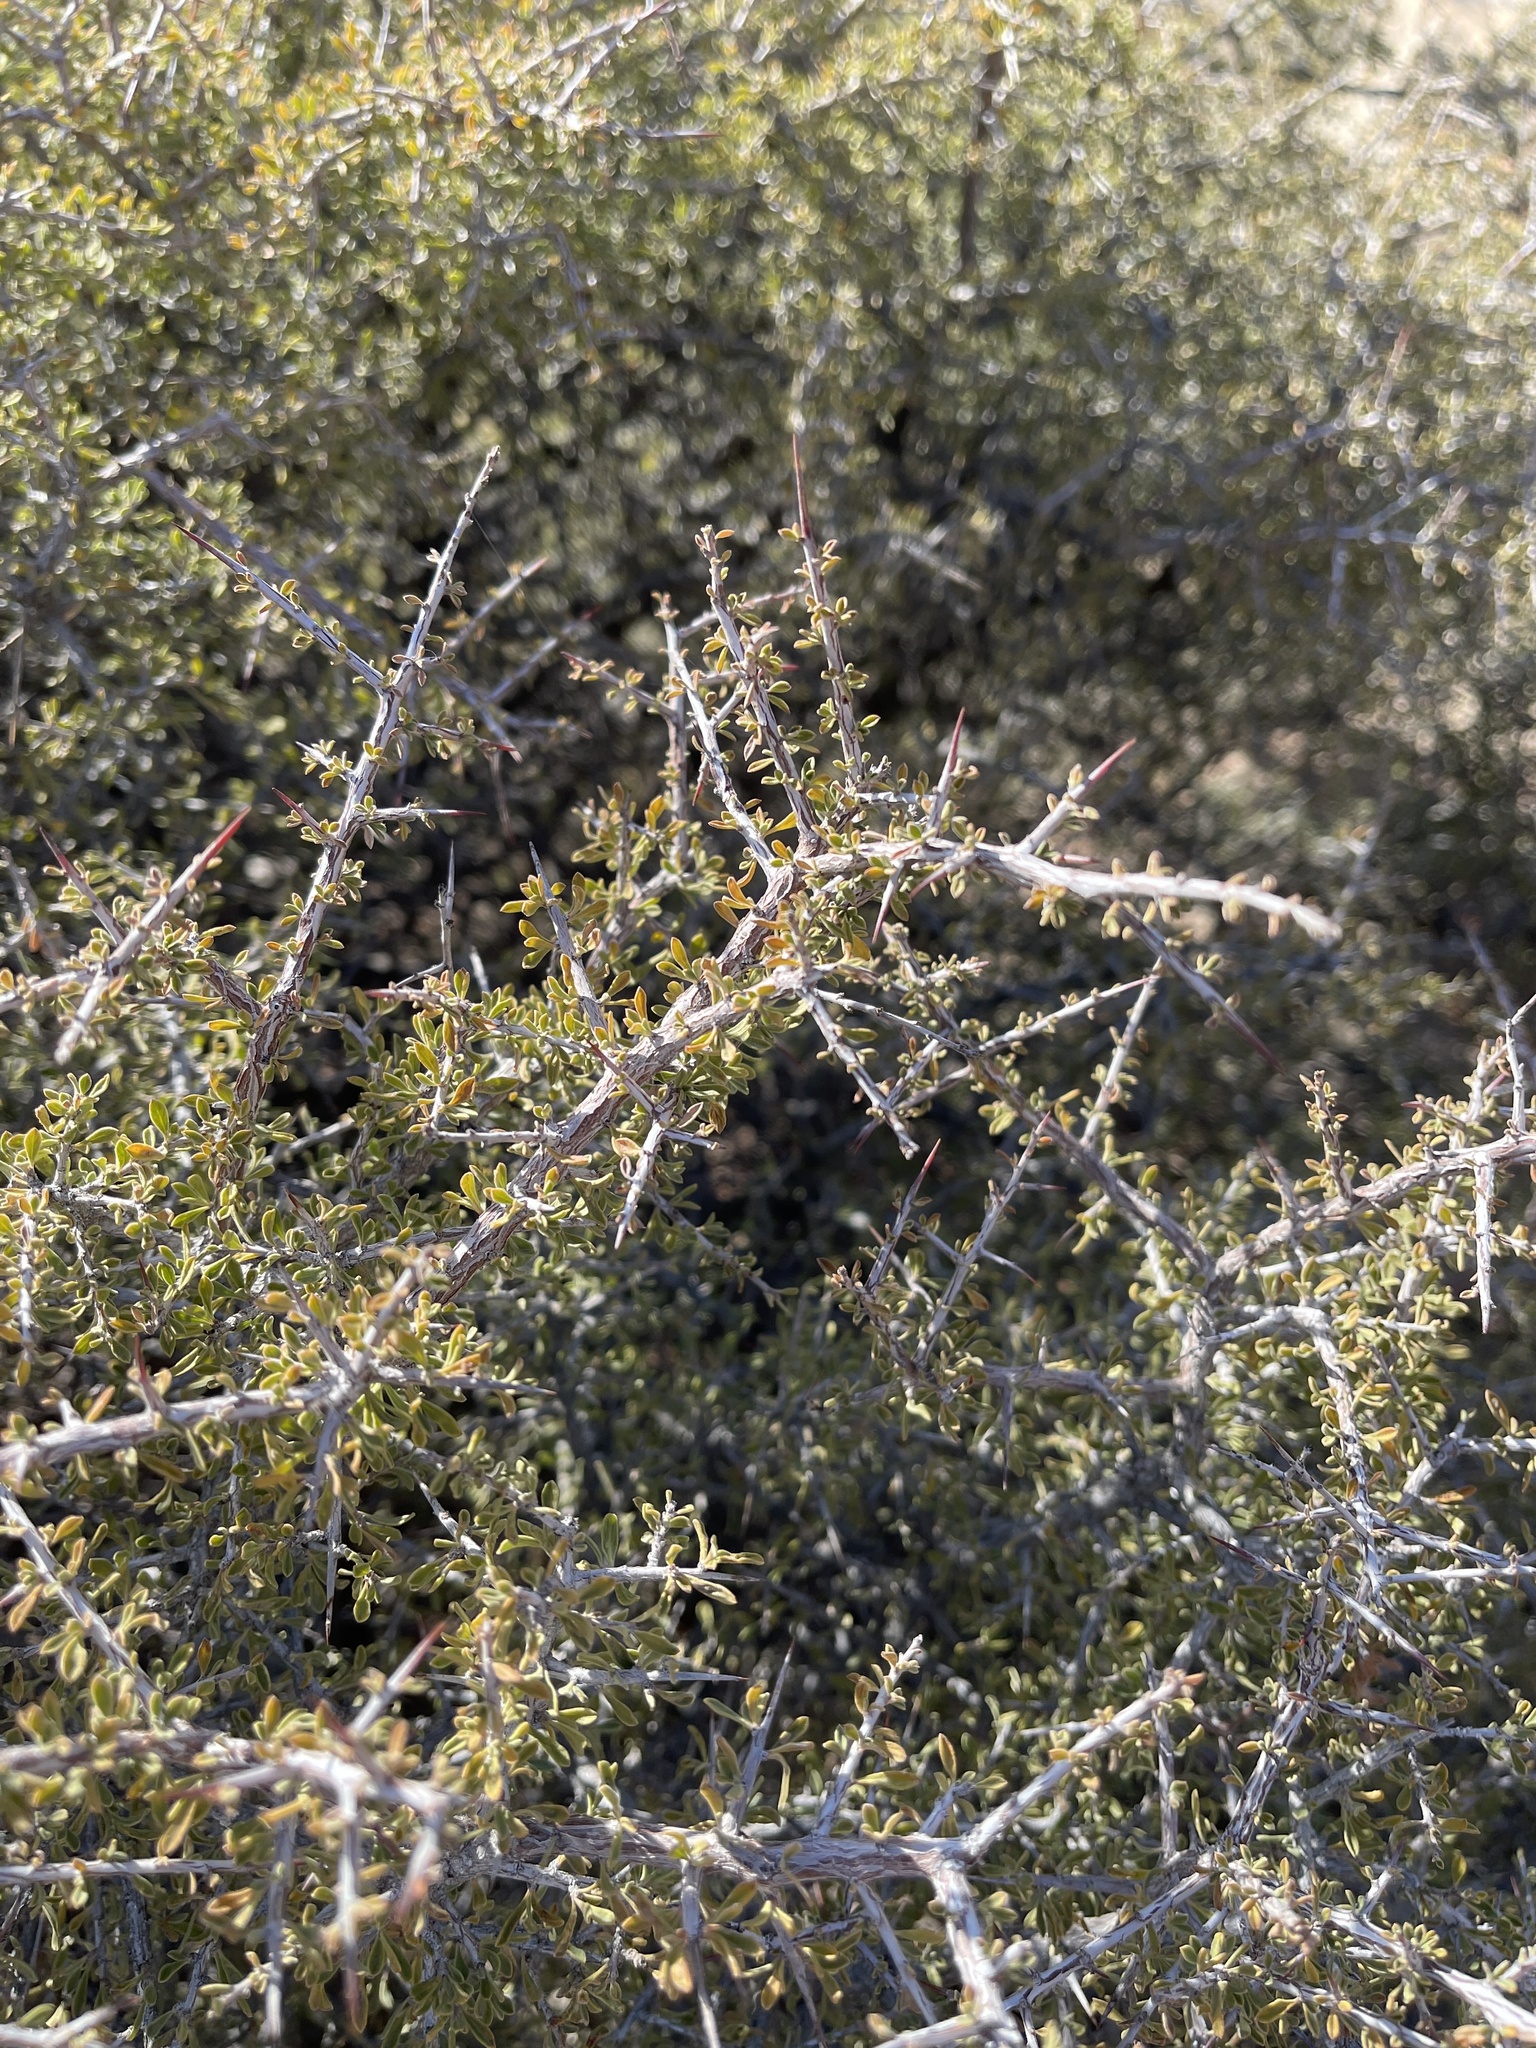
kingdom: Plantae
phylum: Tracheophyta
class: Magnoliopsida
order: Rosales
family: Rhamnaceae
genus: Condalia
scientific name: Condalia warnockii
